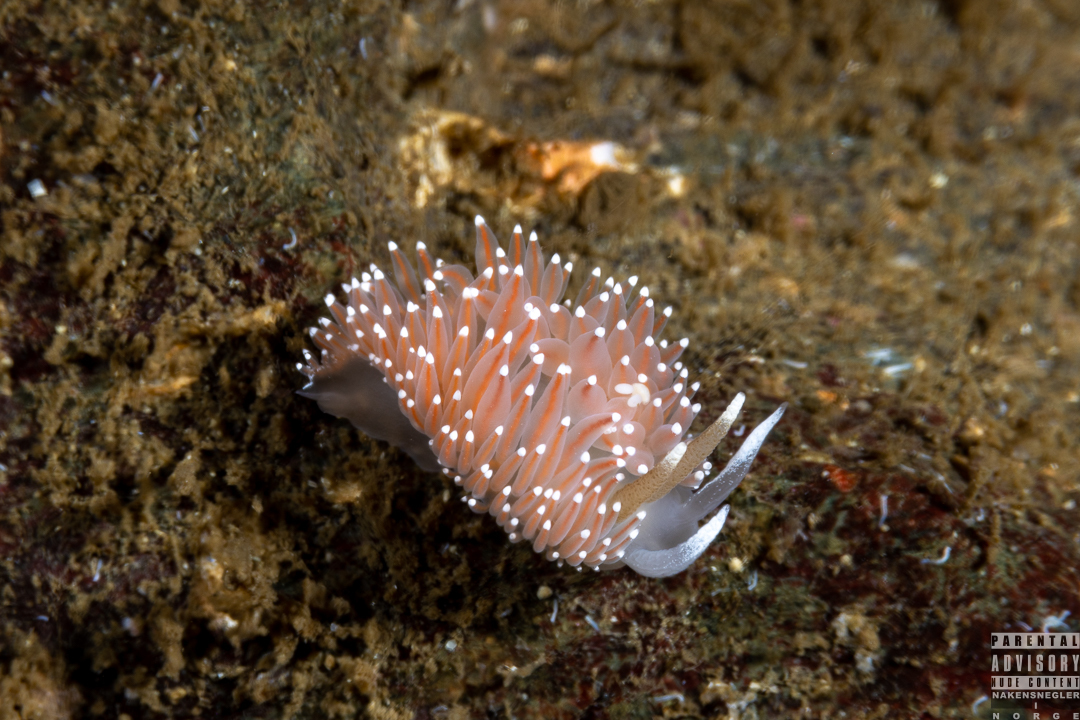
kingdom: Animalia
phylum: Mollusca
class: Gastropoda
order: Nudibranchia
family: Coryphellidae
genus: Coryphella
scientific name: Coryphella nobilis
